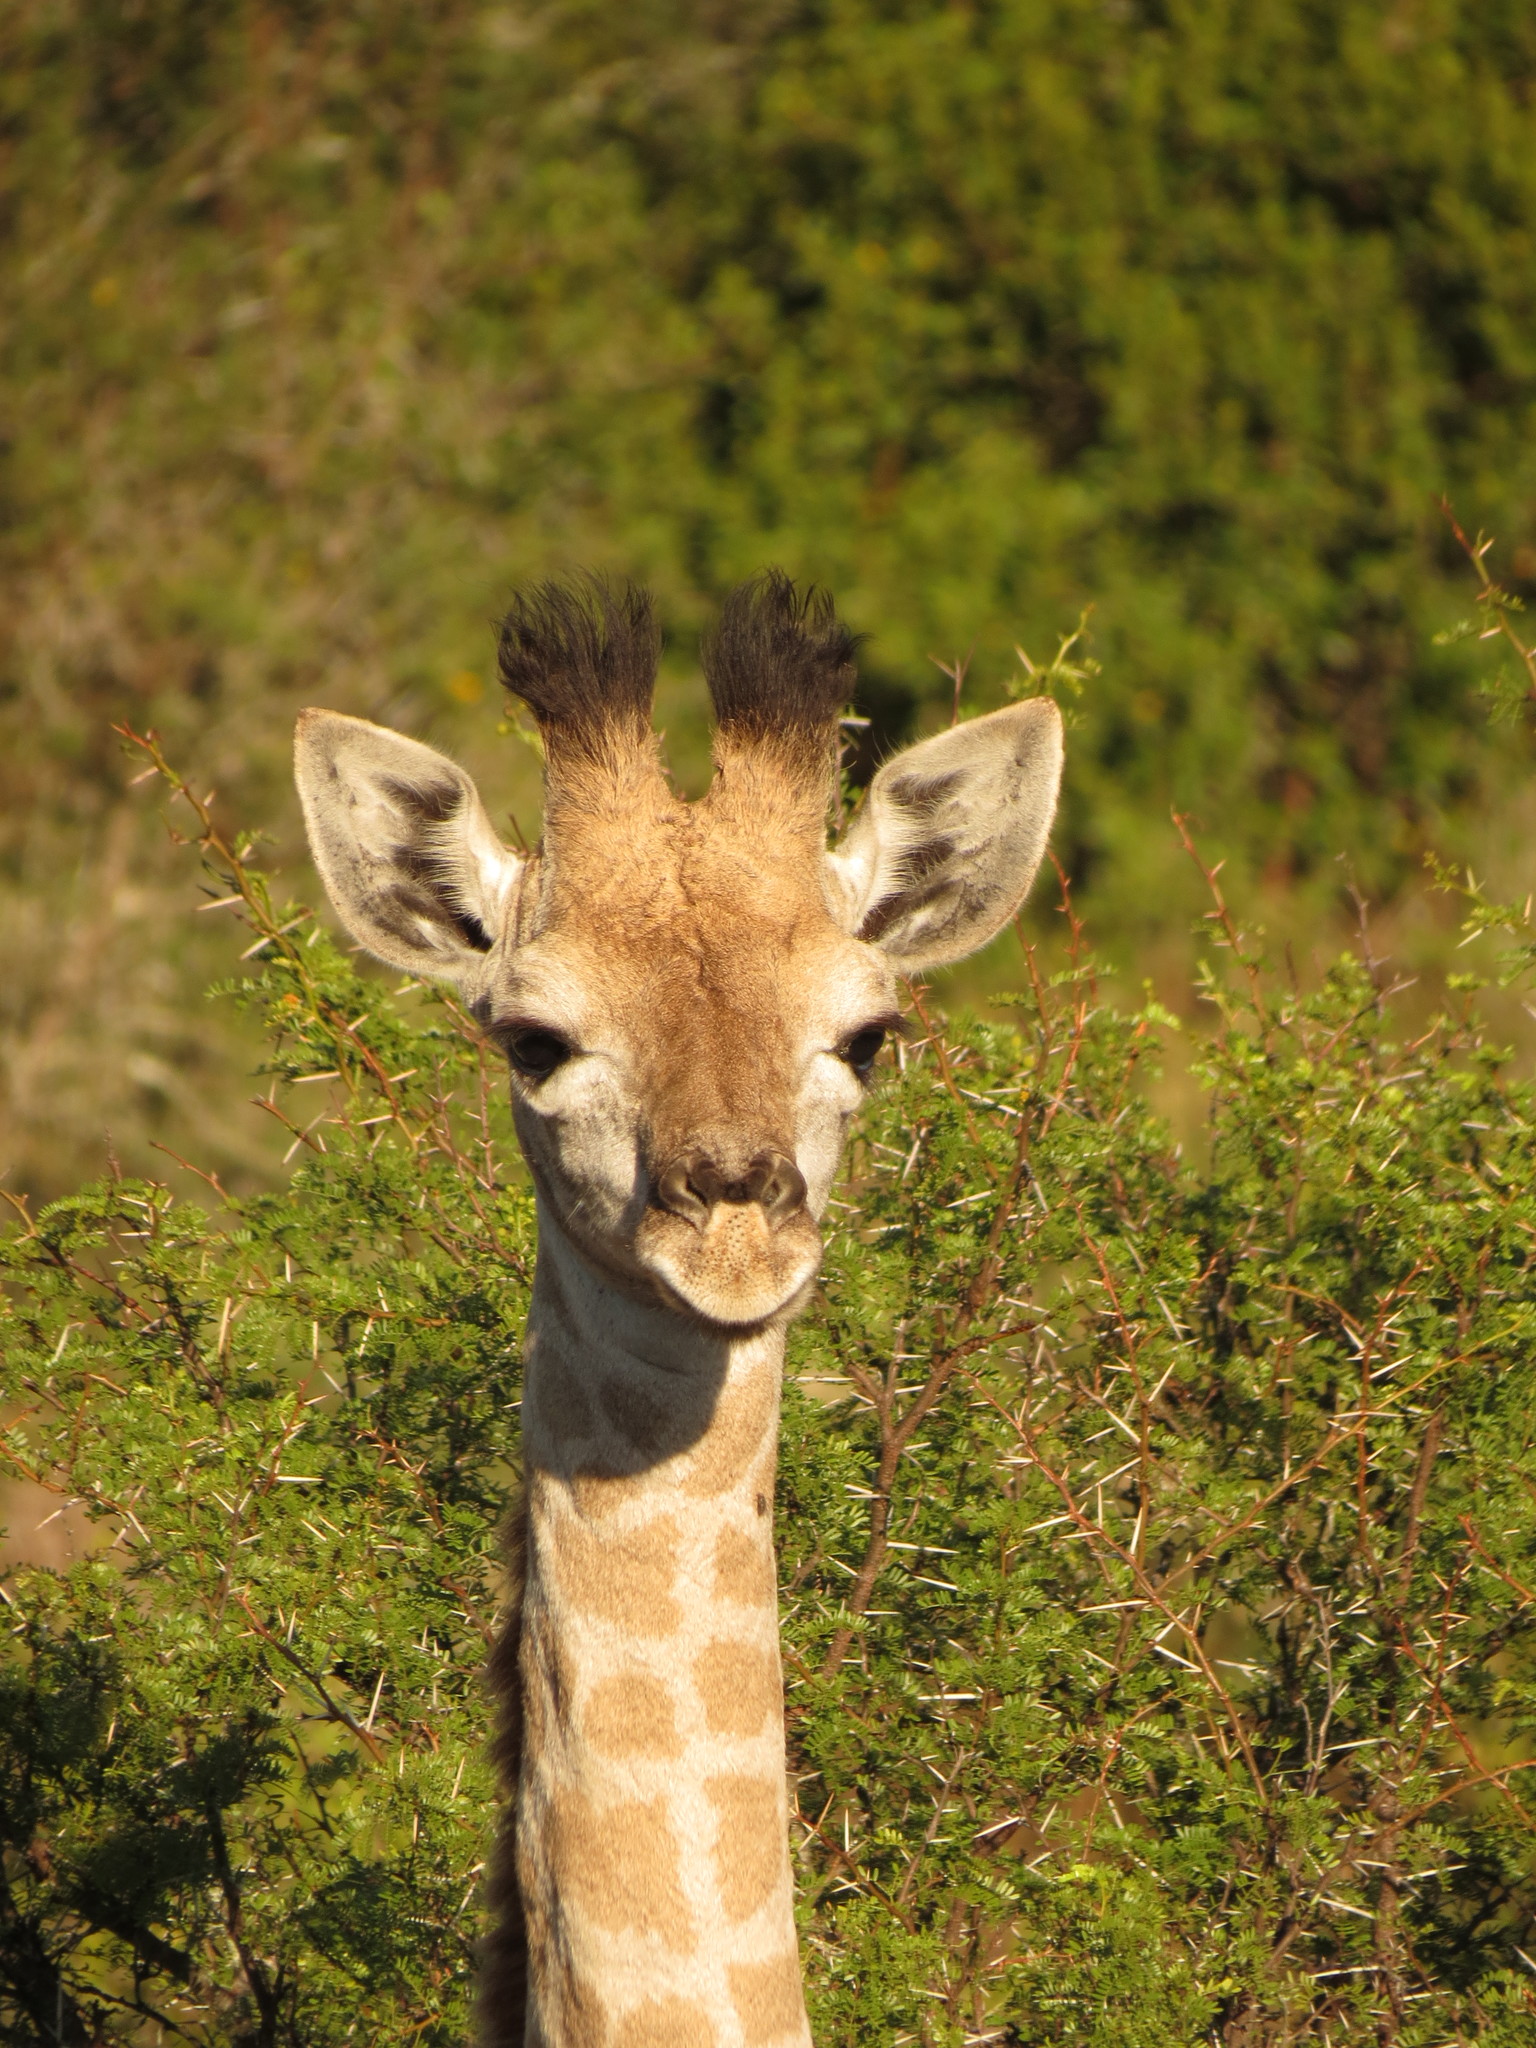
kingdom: Animalia
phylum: Chordata
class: Mammalia
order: Artiodactyla
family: Giraffidae
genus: Giraffa
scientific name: Giraffa giraffa
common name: Southern giraffe
